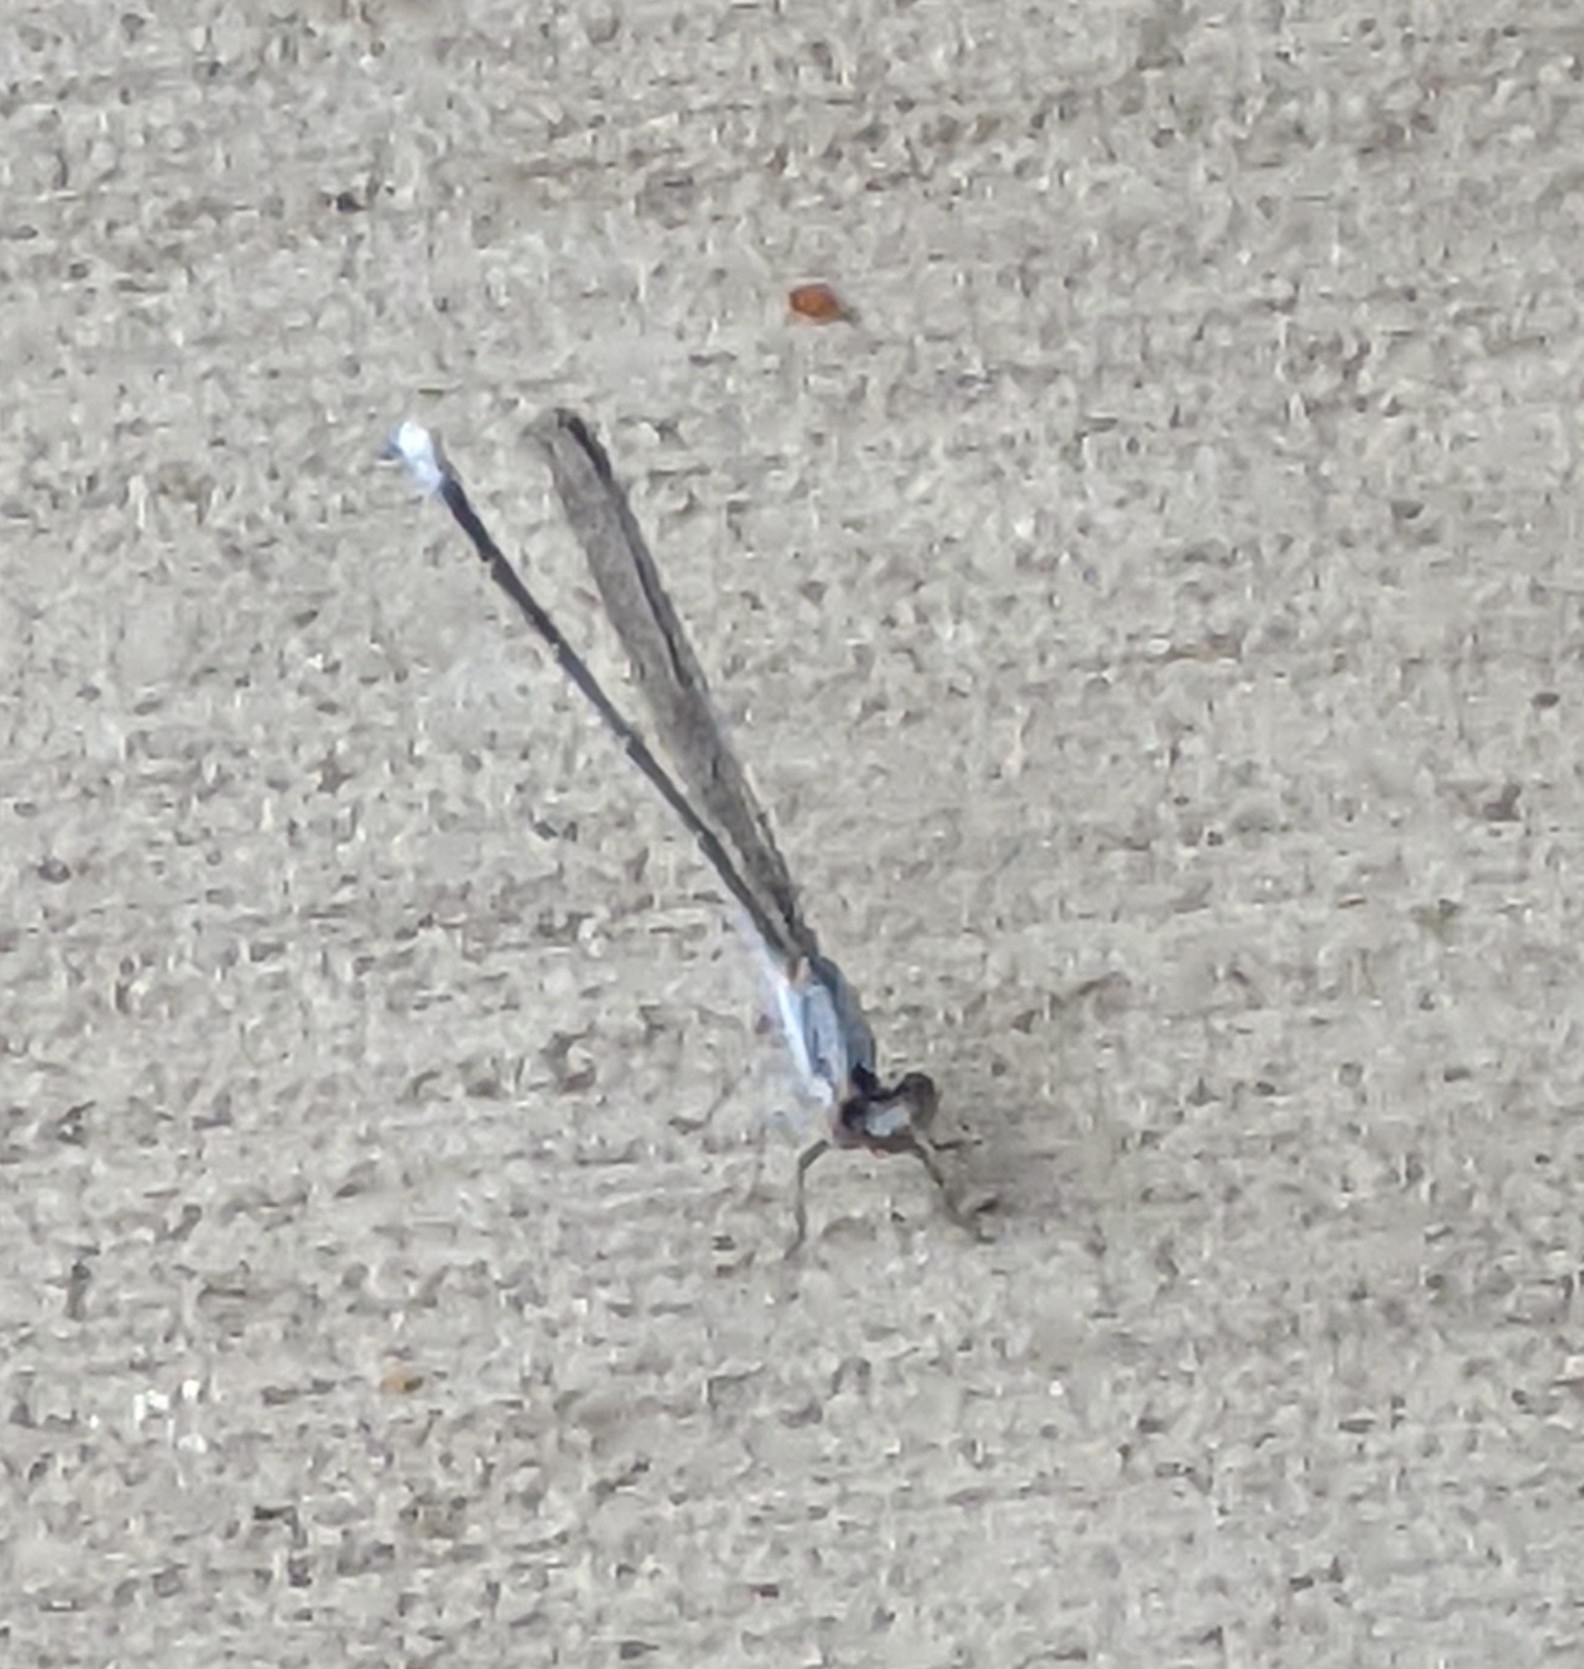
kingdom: Animalia
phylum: Arthropoda
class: Insecta
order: Odonata
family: Coenagrionidae
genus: Argia
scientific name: Argia moesta
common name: Powdered dancer
